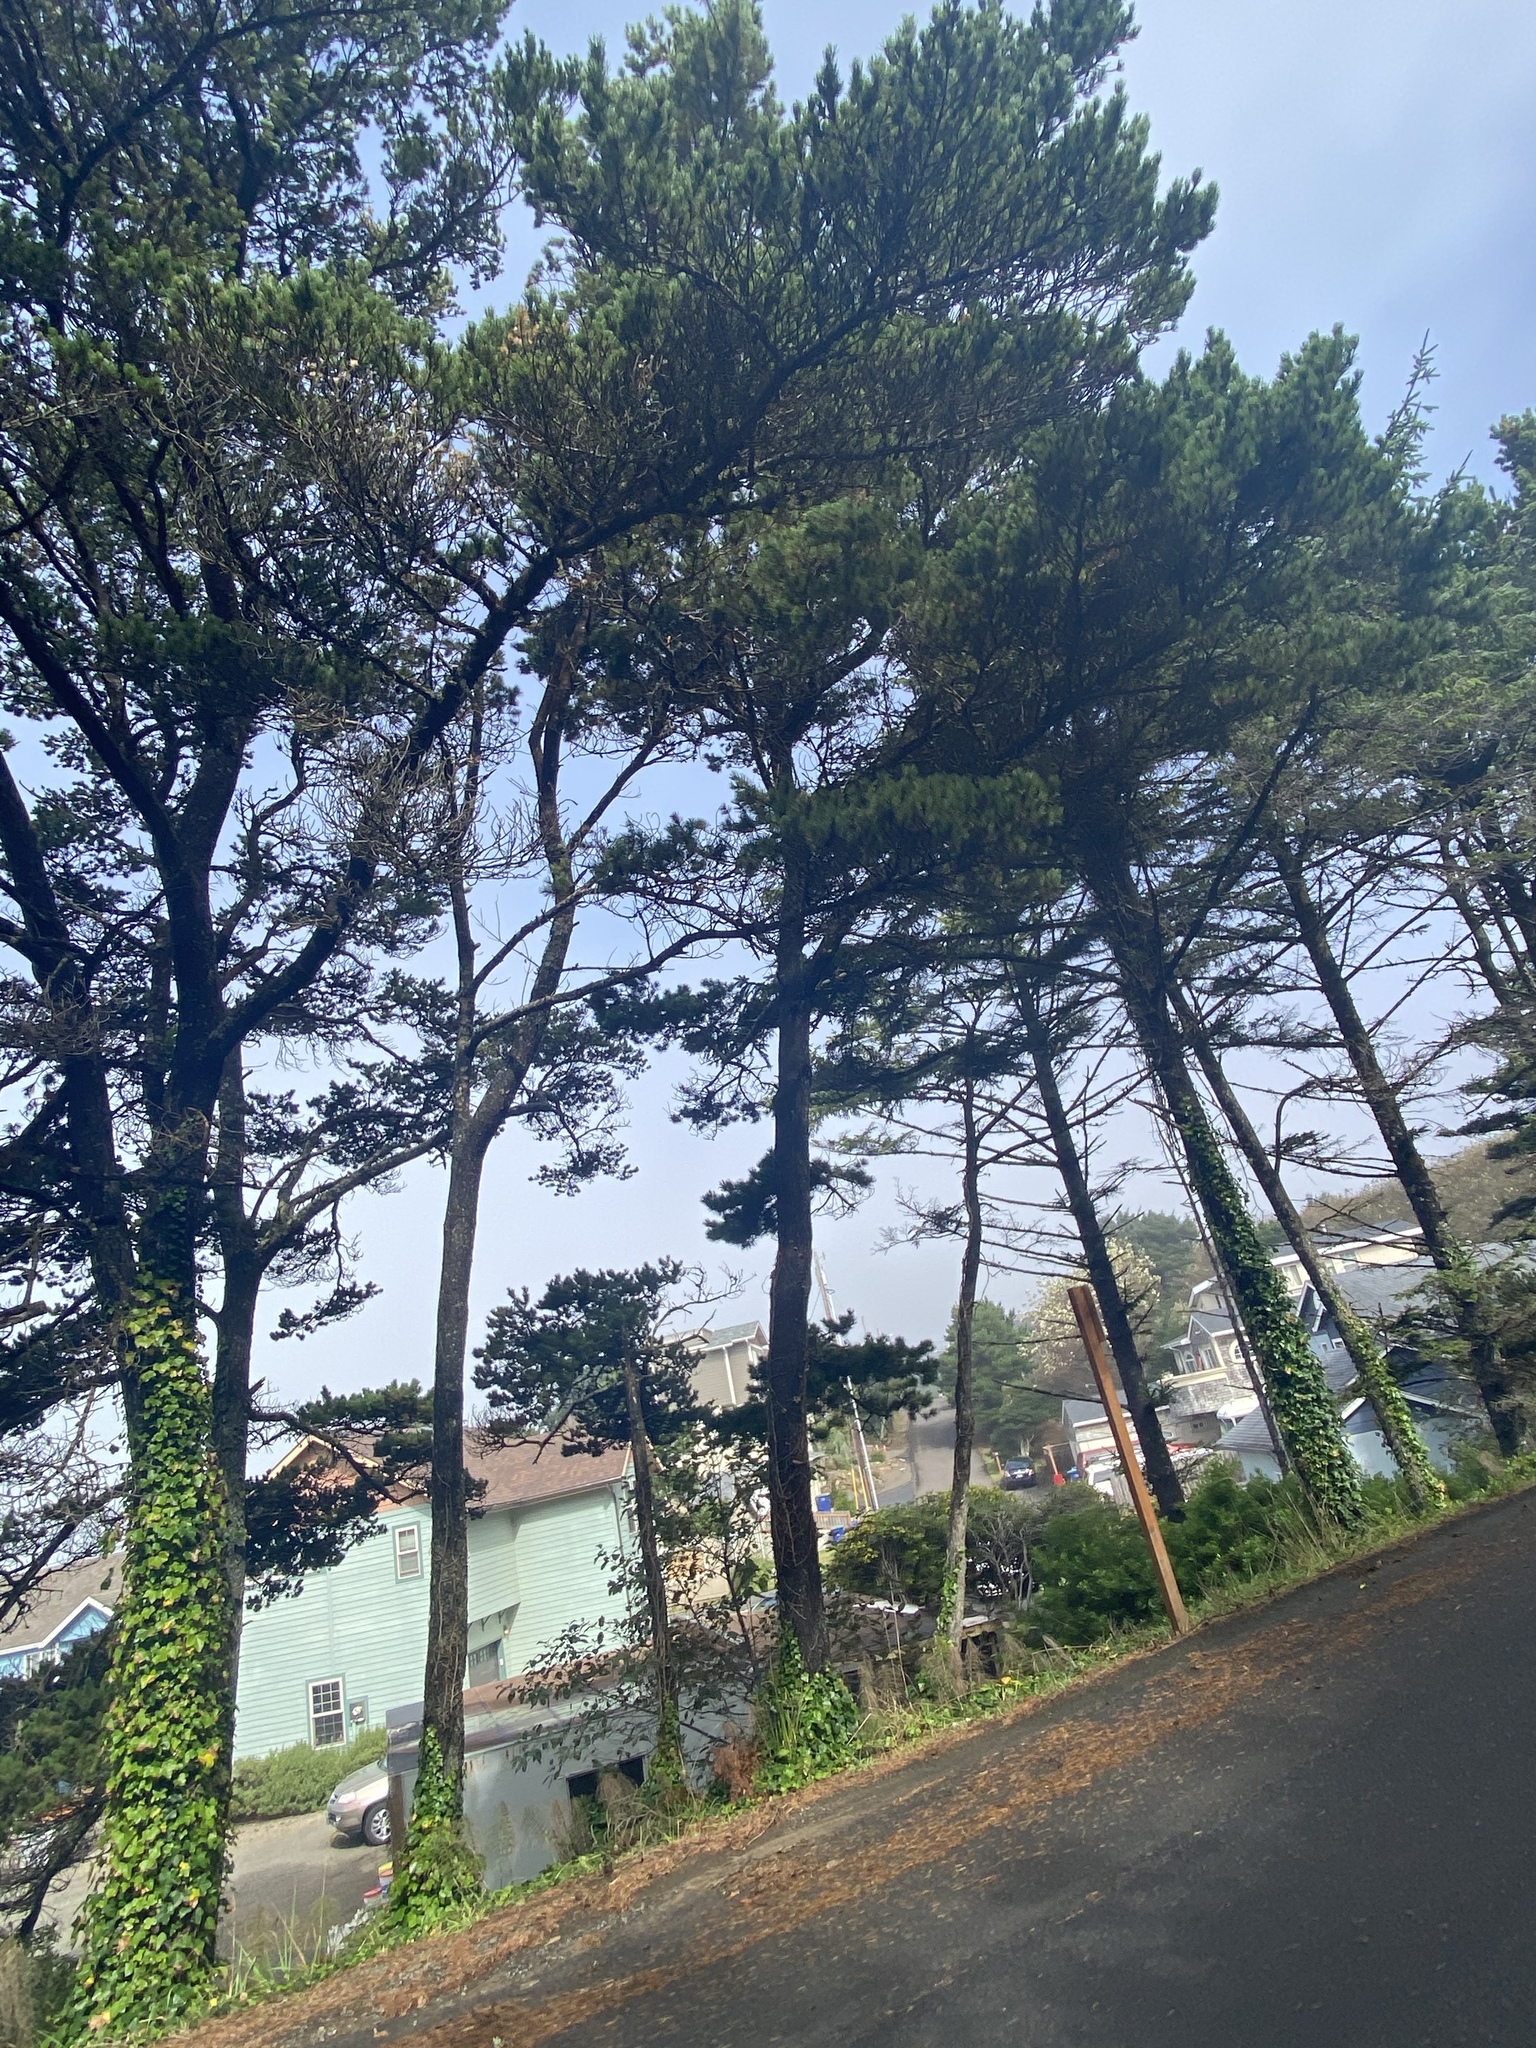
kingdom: Plantae
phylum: Tracheophyta
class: Pinopsida
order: Pinales
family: Pinaceae
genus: Pinus
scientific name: Pinus contorta
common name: Lodgepole pine
